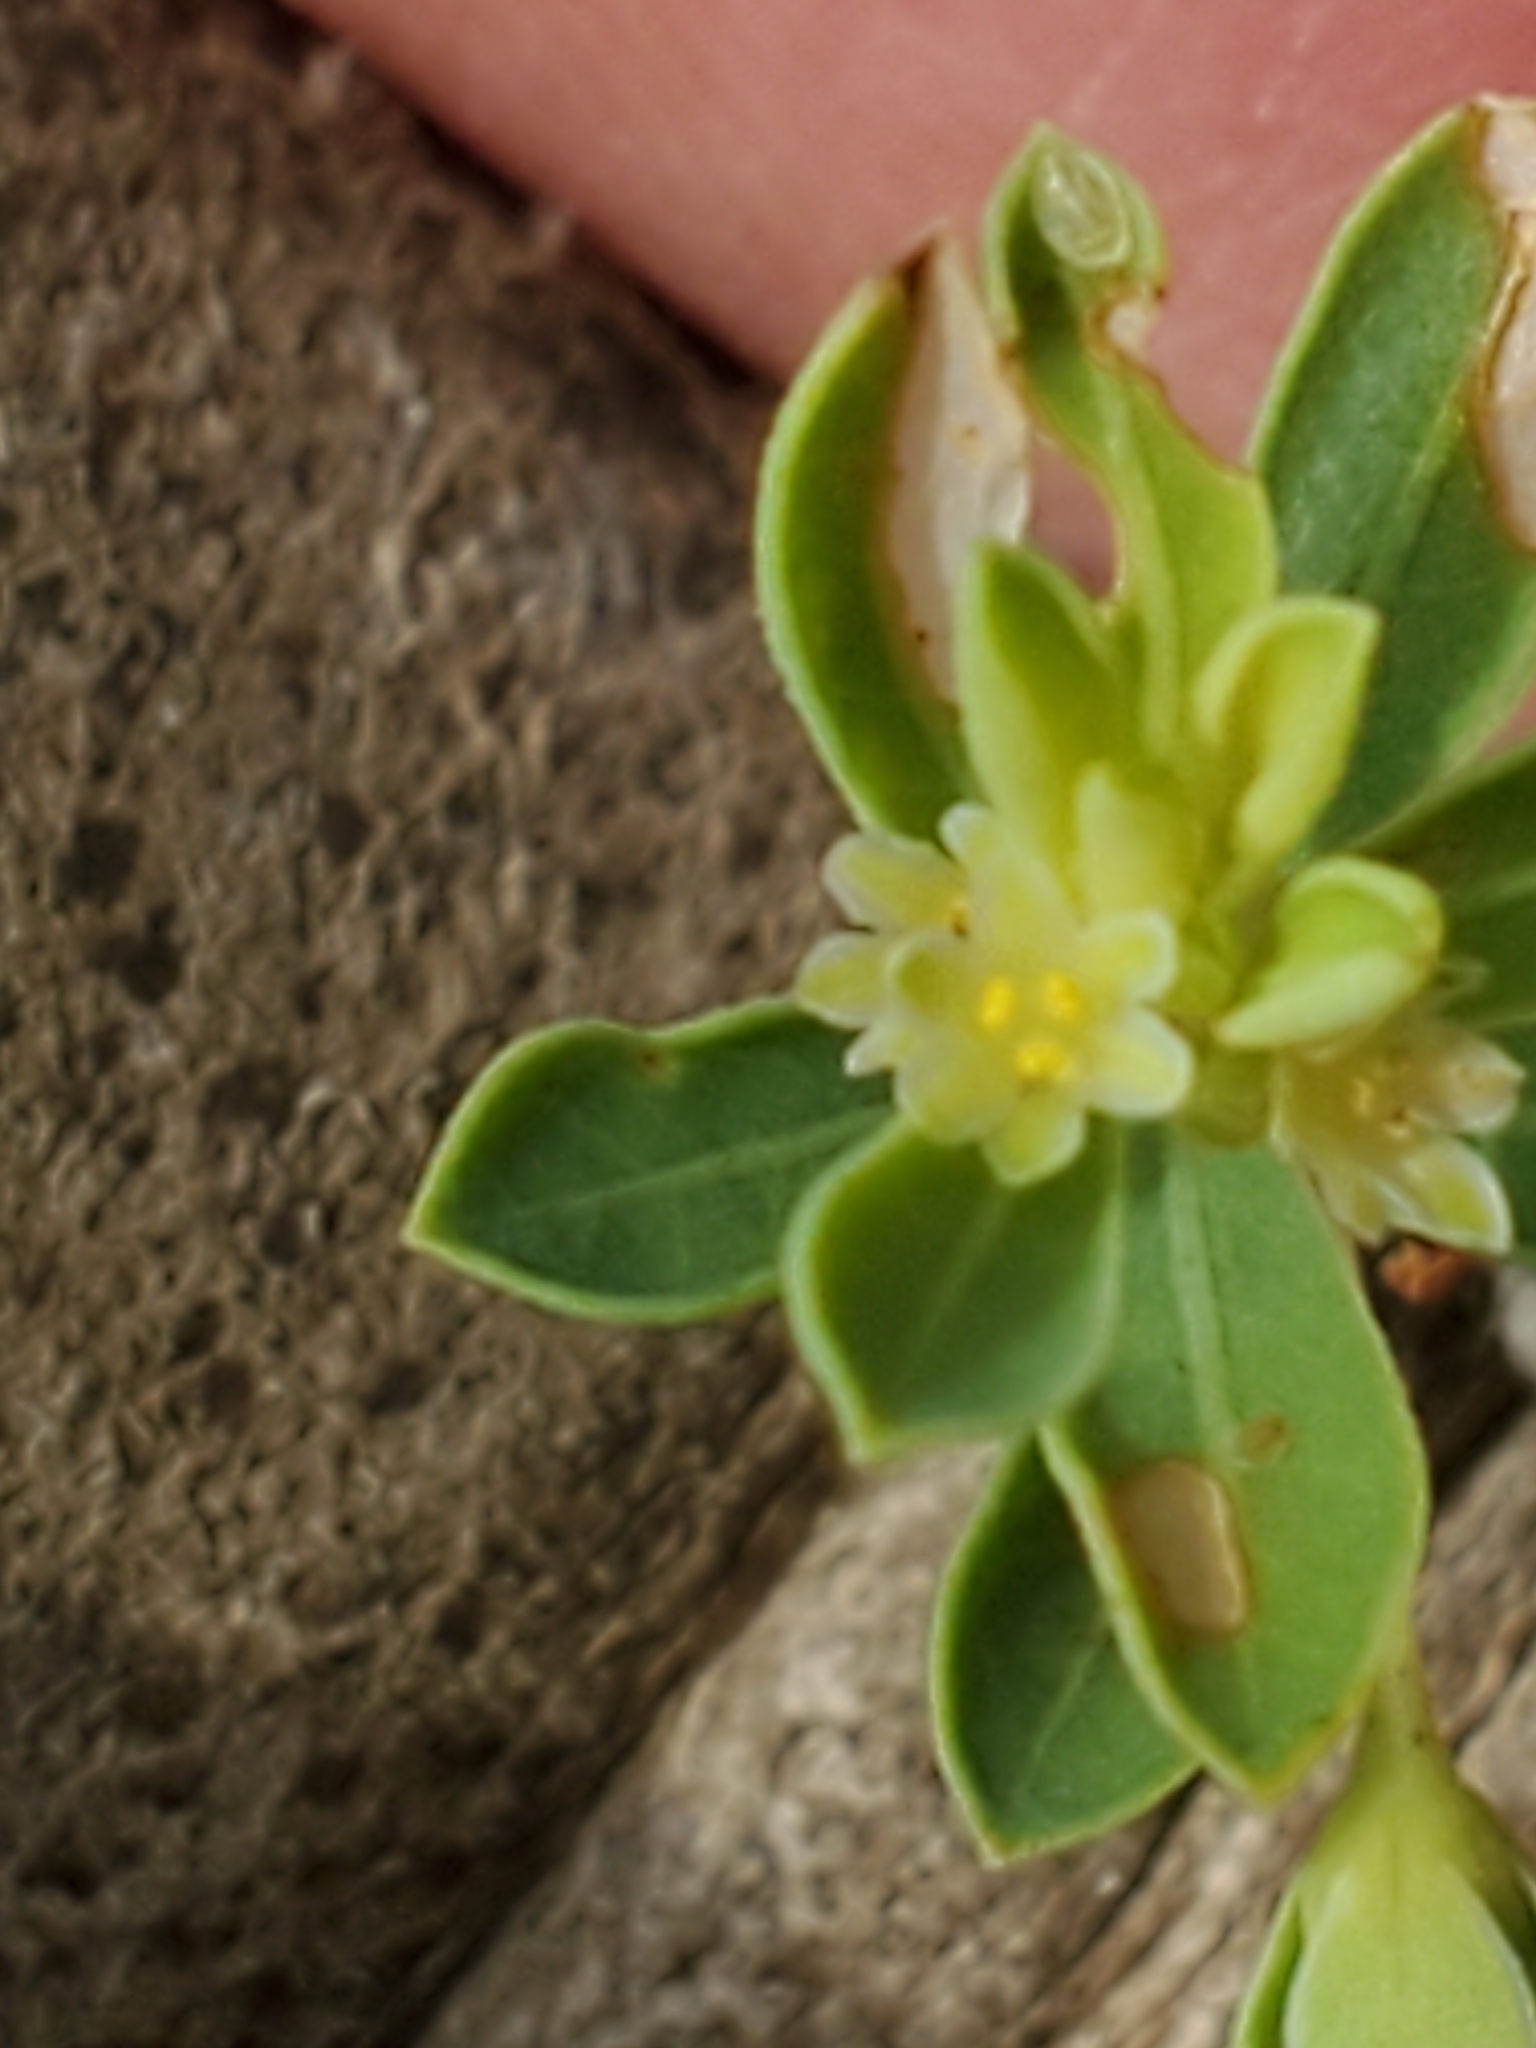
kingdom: Plantae
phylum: Tracheophyta
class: Magnoliopsida
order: Malpighiales
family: Phyllanthaceae
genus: Phyllanthus
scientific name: Phyllanthus polygonoides
